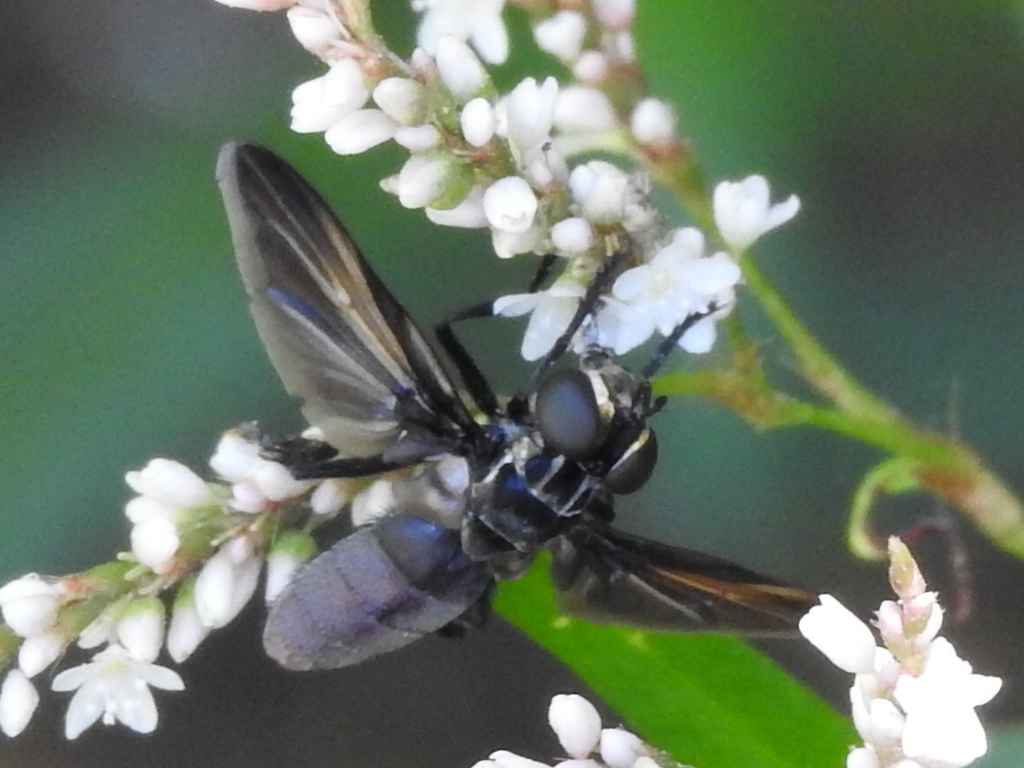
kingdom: Animalia
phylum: Arthropoda
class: Insecta
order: Diptera
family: Tachinidae
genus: Trichopoda
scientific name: Trichopoda lanipes
